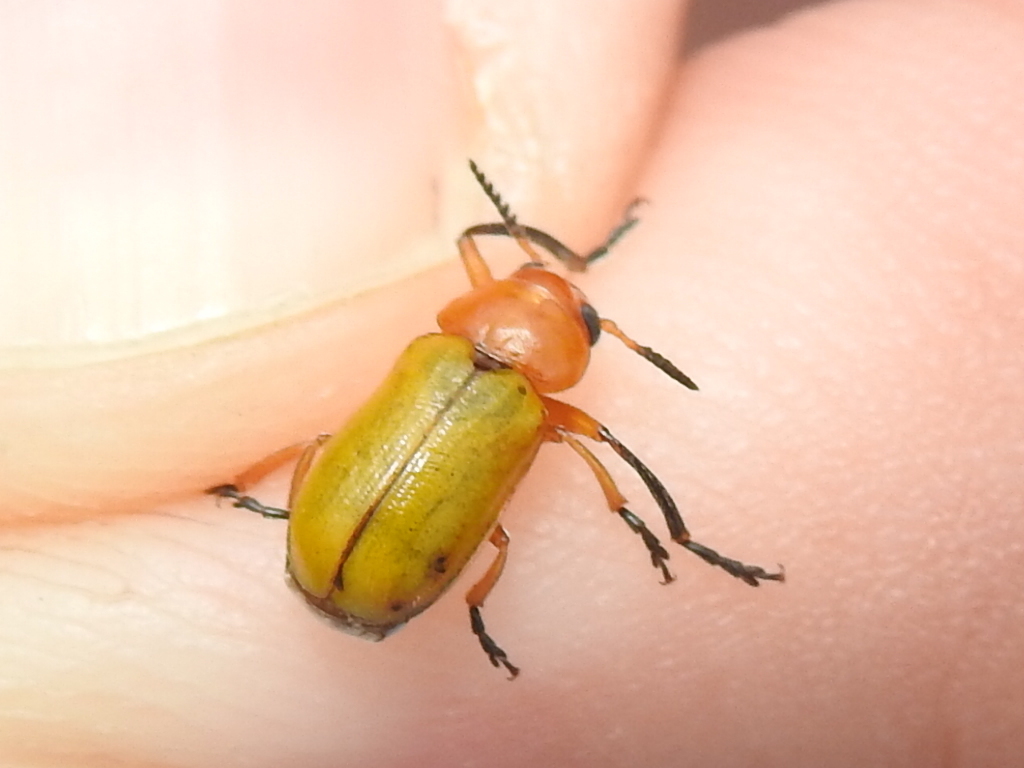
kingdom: Animalia
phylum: Arthropoda
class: Insecta
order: Coleoptera
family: Chrysomelidae
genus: Anomoea
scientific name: Anomoea laticlavia
